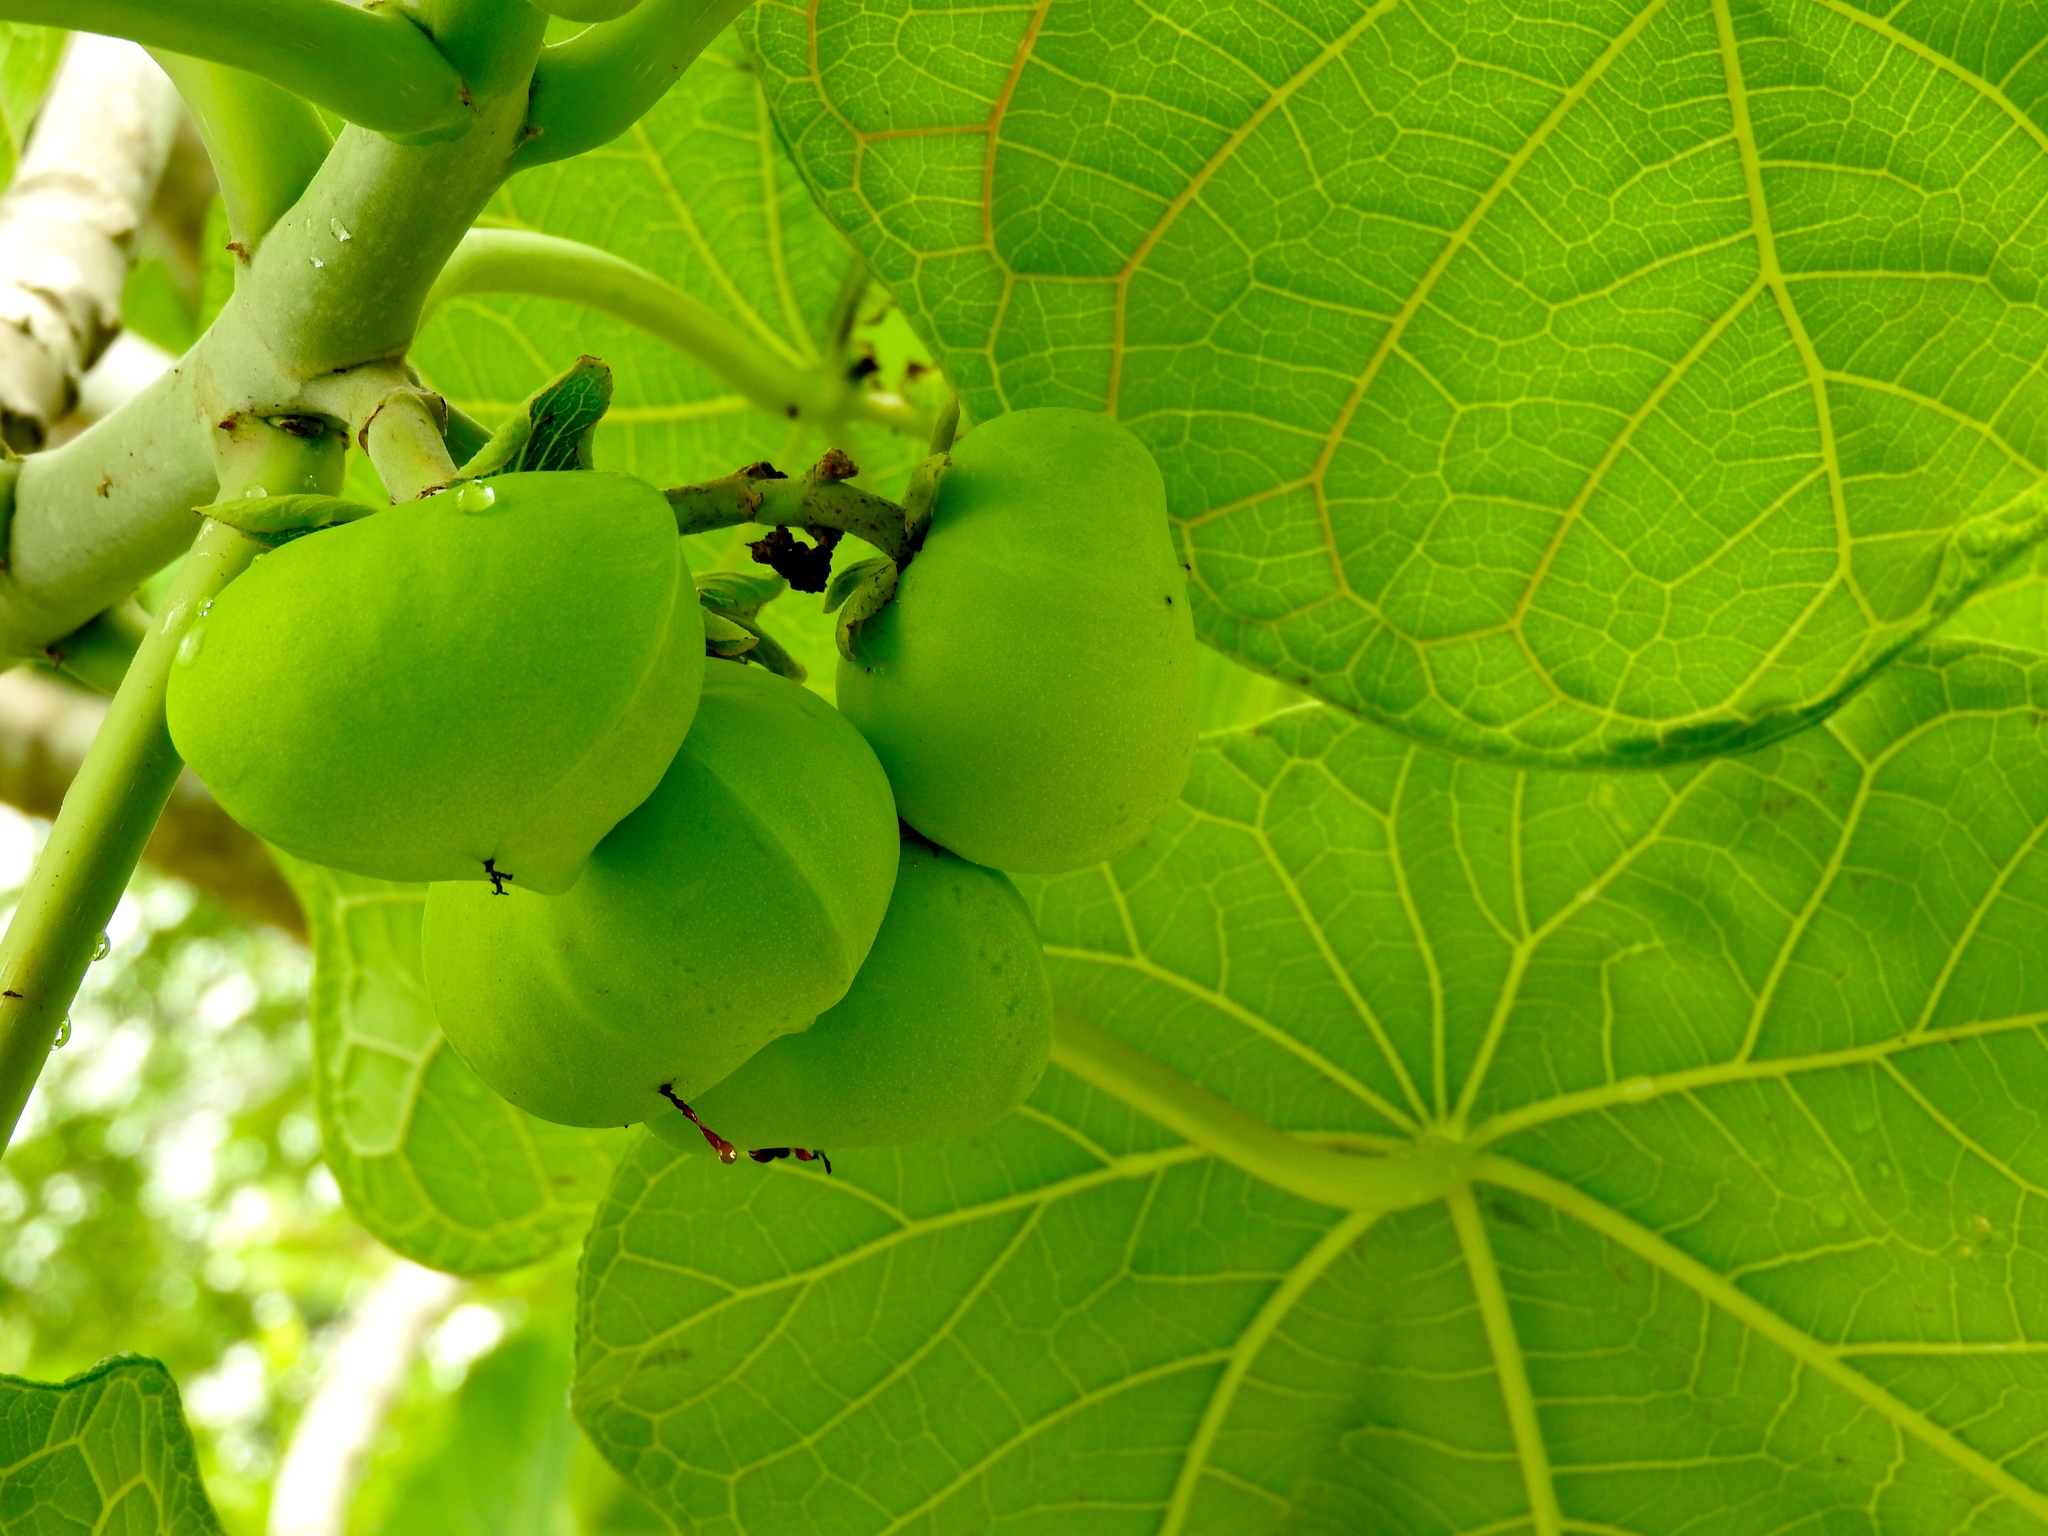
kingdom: Plantae
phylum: Tracheophyta
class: Magnoliopsida
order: Malpighiales
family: Euphorbiaceae
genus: Jatropha
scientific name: Jatropha peltata
